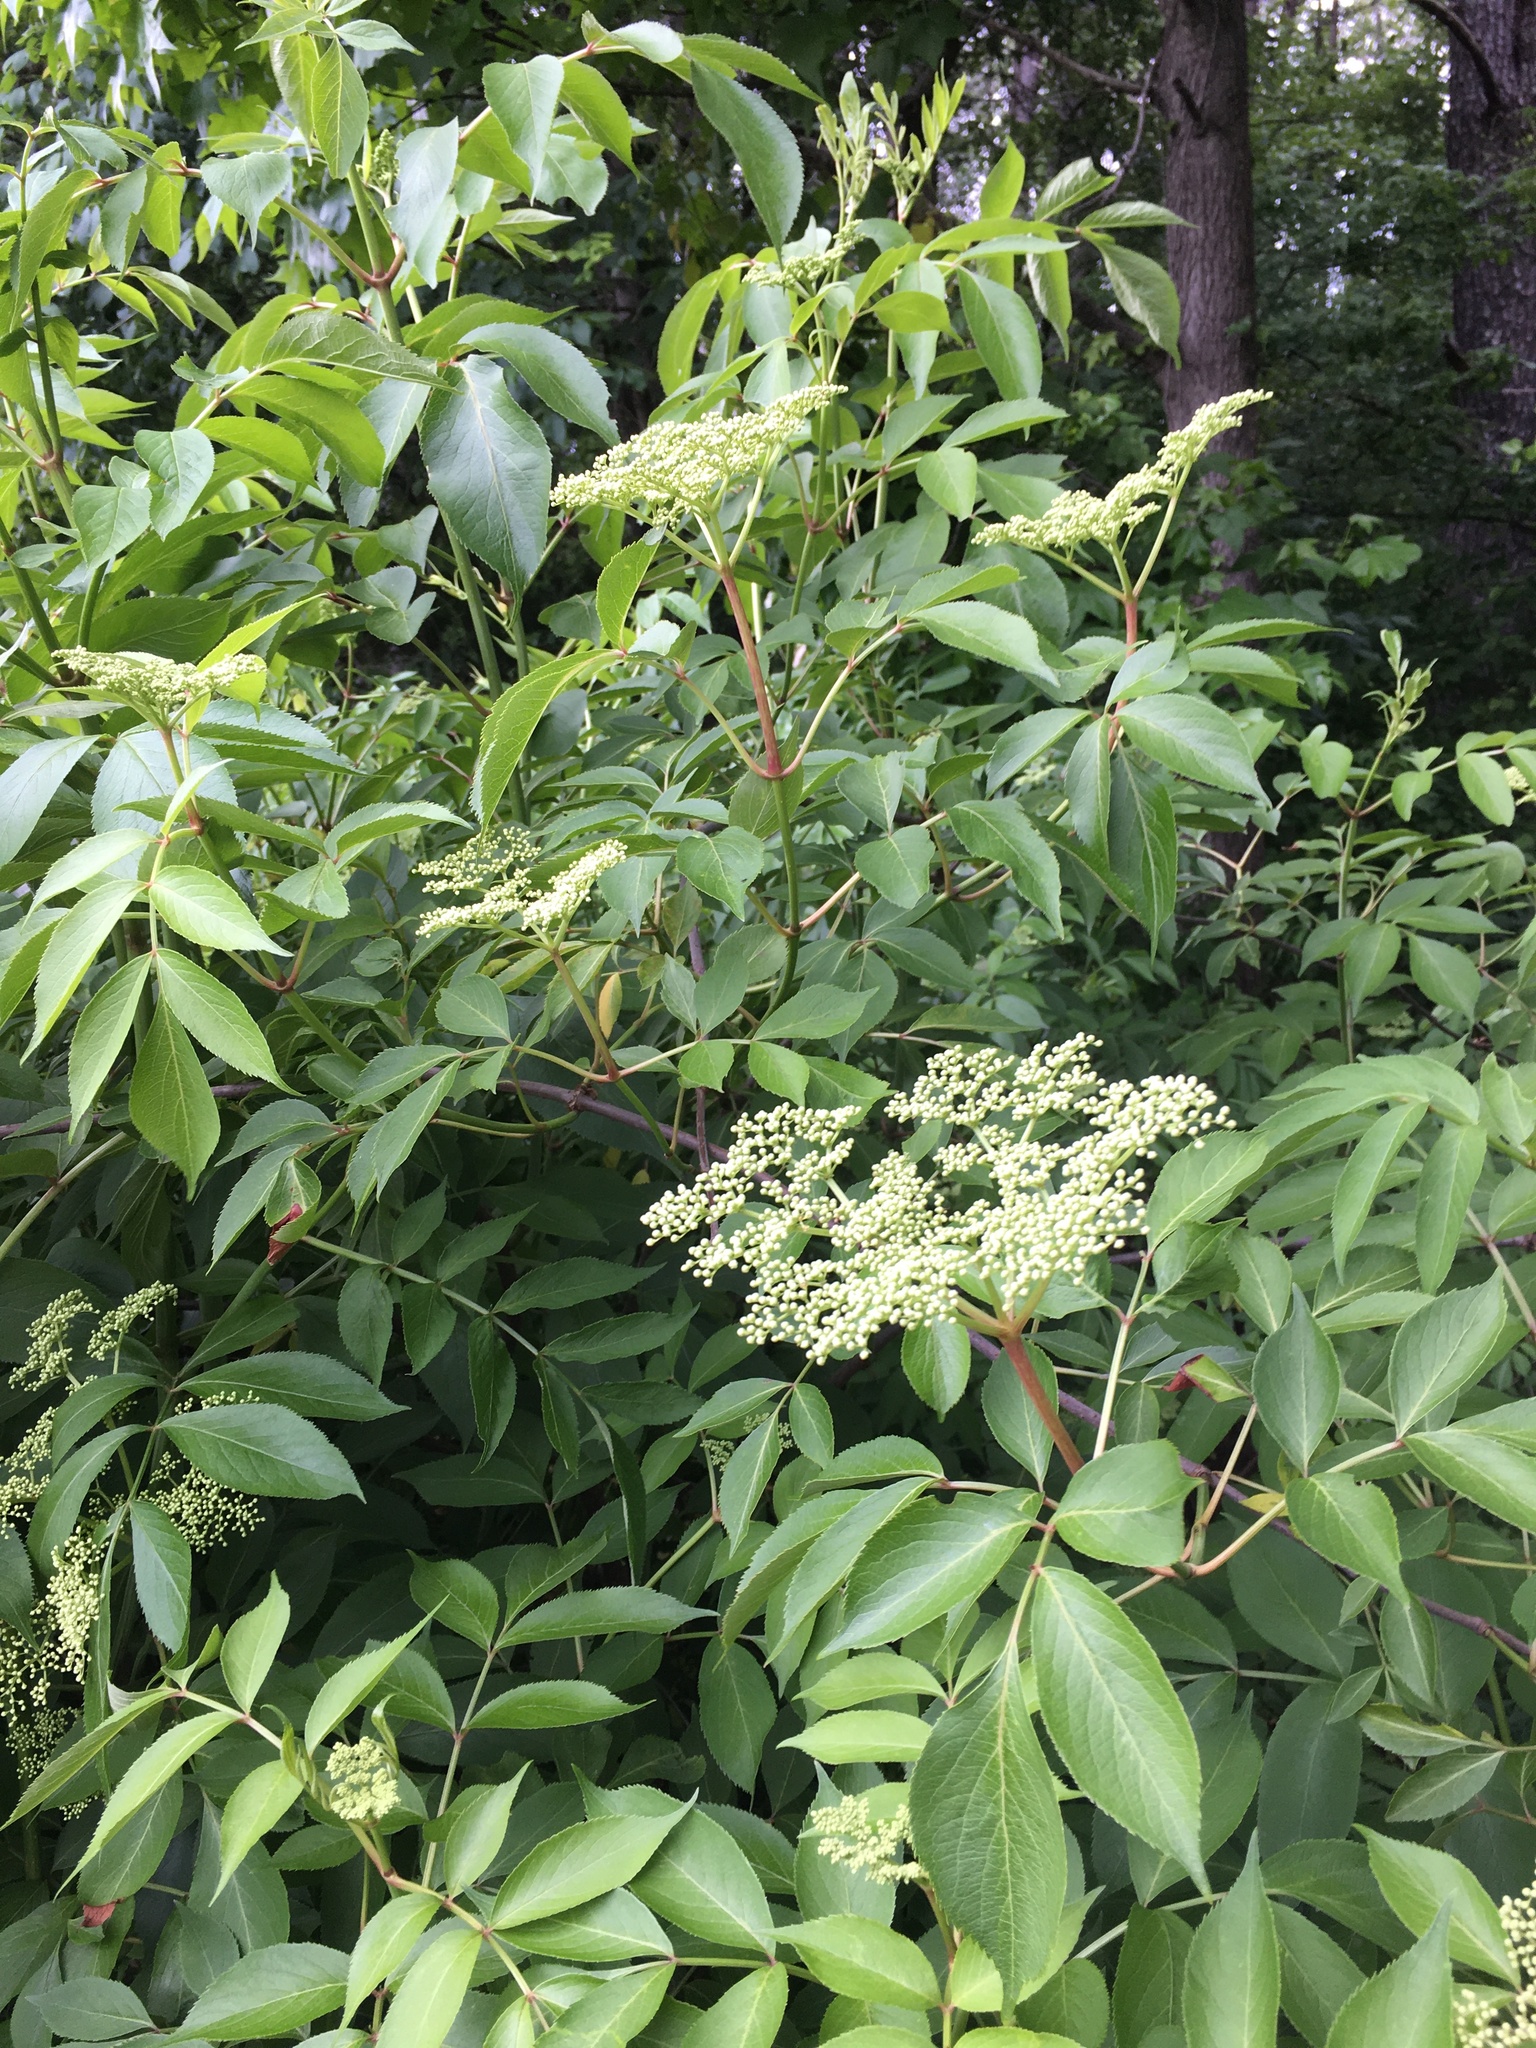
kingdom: Plantae
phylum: Tracheophyta
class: Magnoliopsida
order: Dipsacales
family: Viburnaceae
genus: Sambucus
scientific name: Sambucus canadensis
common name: American elder
